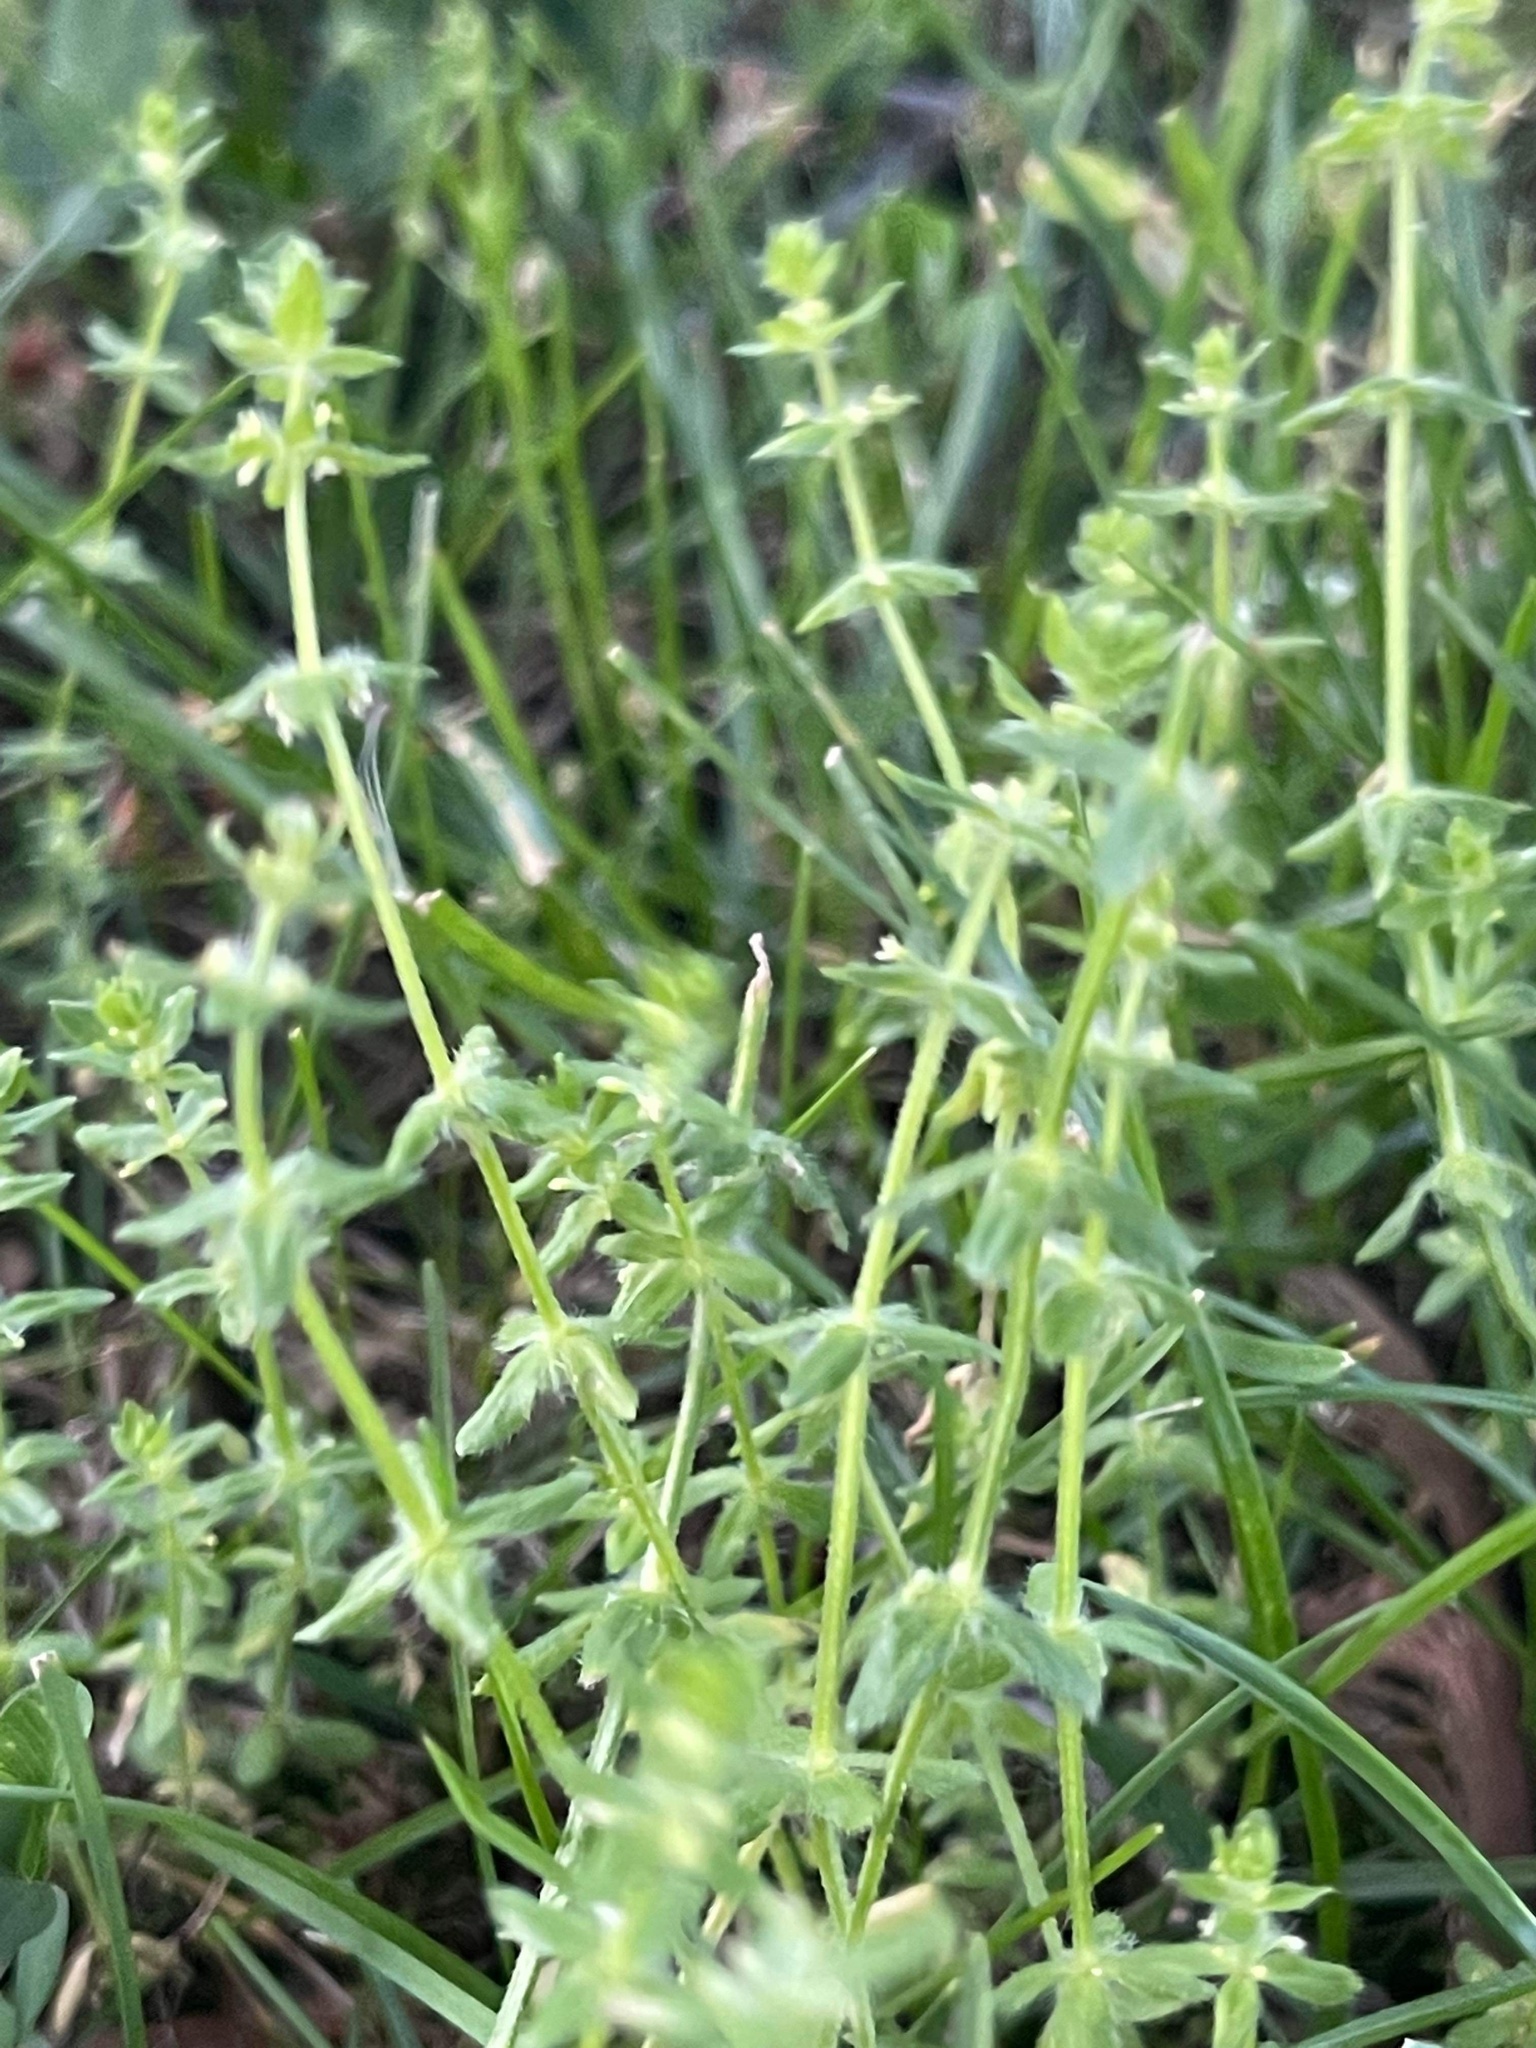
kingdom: Plantae
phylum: Tracheophyta
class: Magnoliopsida
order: Gentianales
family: Rubiaceae
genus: Cruciata
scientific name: Cruciata pedemontana
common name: Piedmont bedstraw
